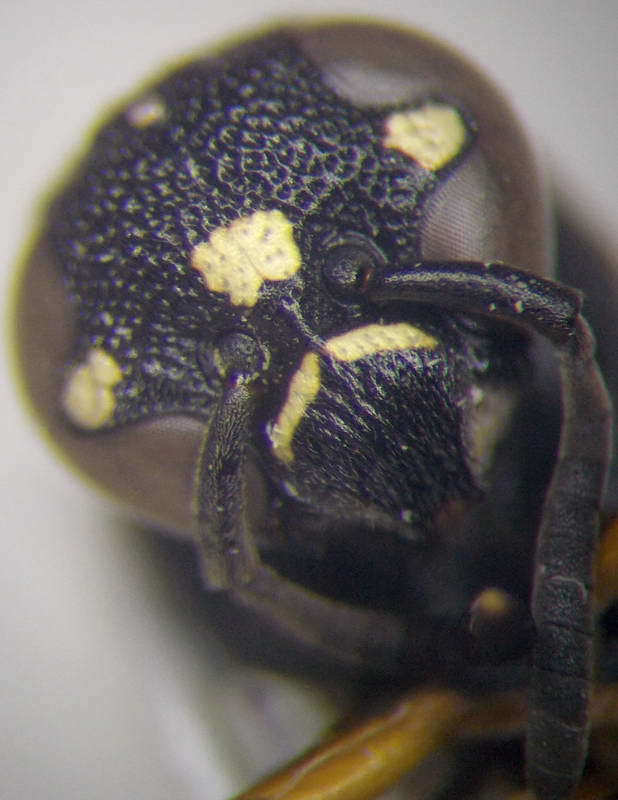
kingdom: Animalia
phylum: Arthropoda
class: Insecta
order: Hymenoptera
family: Eumenidae
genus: Antepipona
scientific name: Antepipona deflenda
